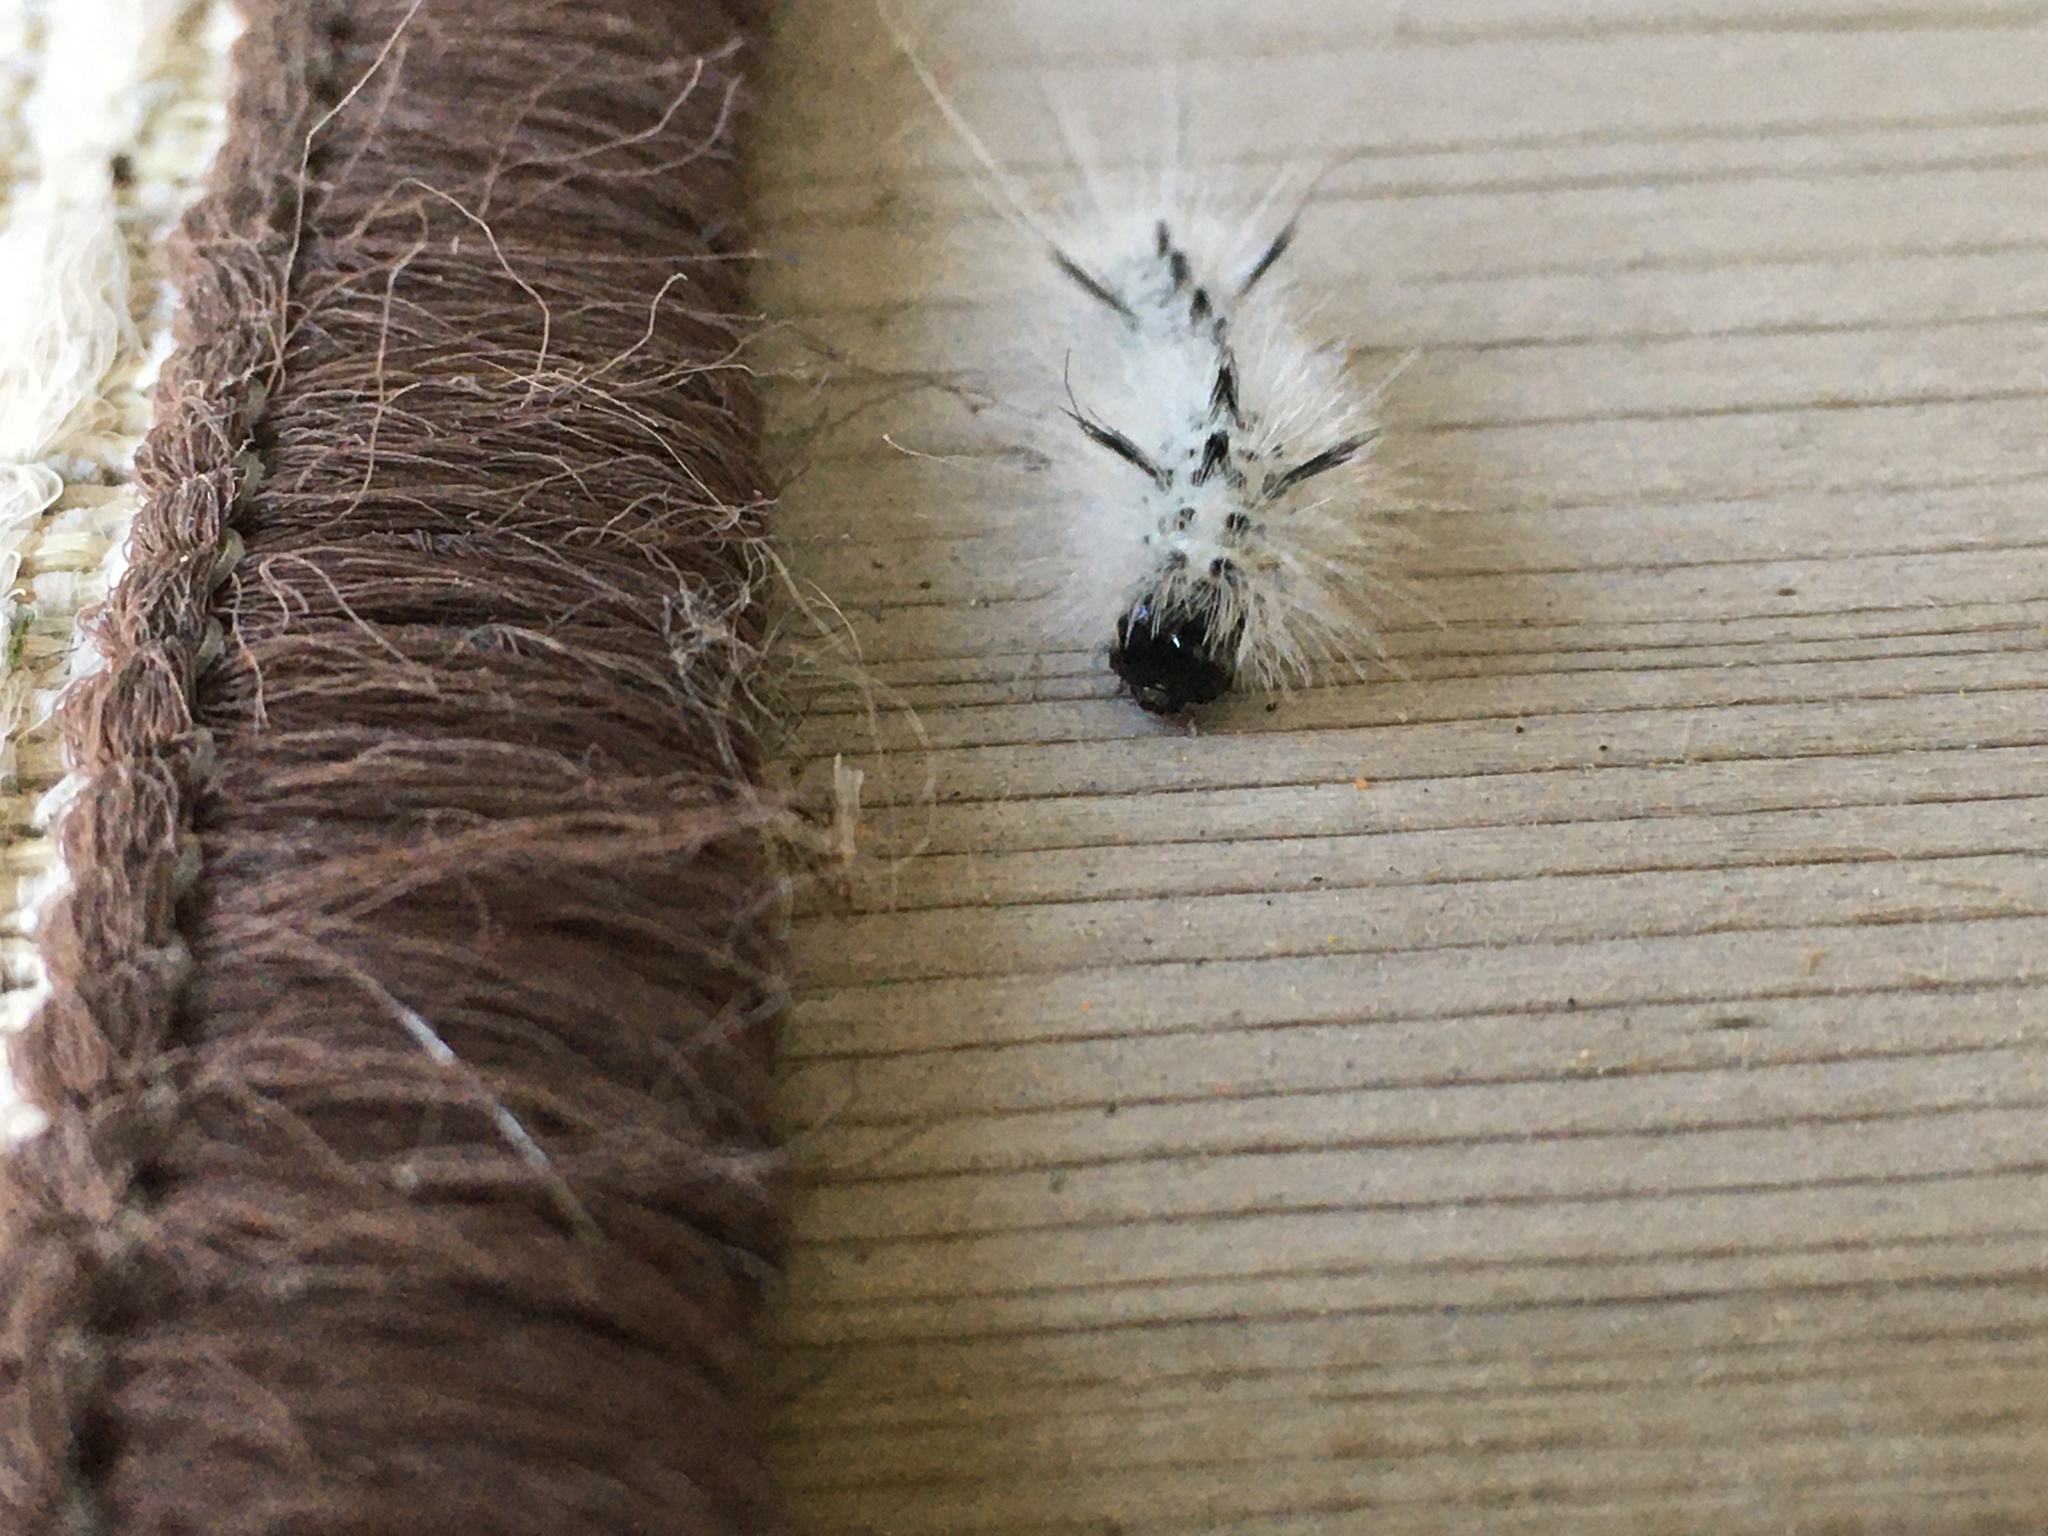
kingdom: Animalia
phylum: Arthropoda
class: Insecta
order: Lepidoptera
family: Erebidae
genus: Lophocampa
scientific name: Lophocampa caryae
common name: Hickory tussock moth
